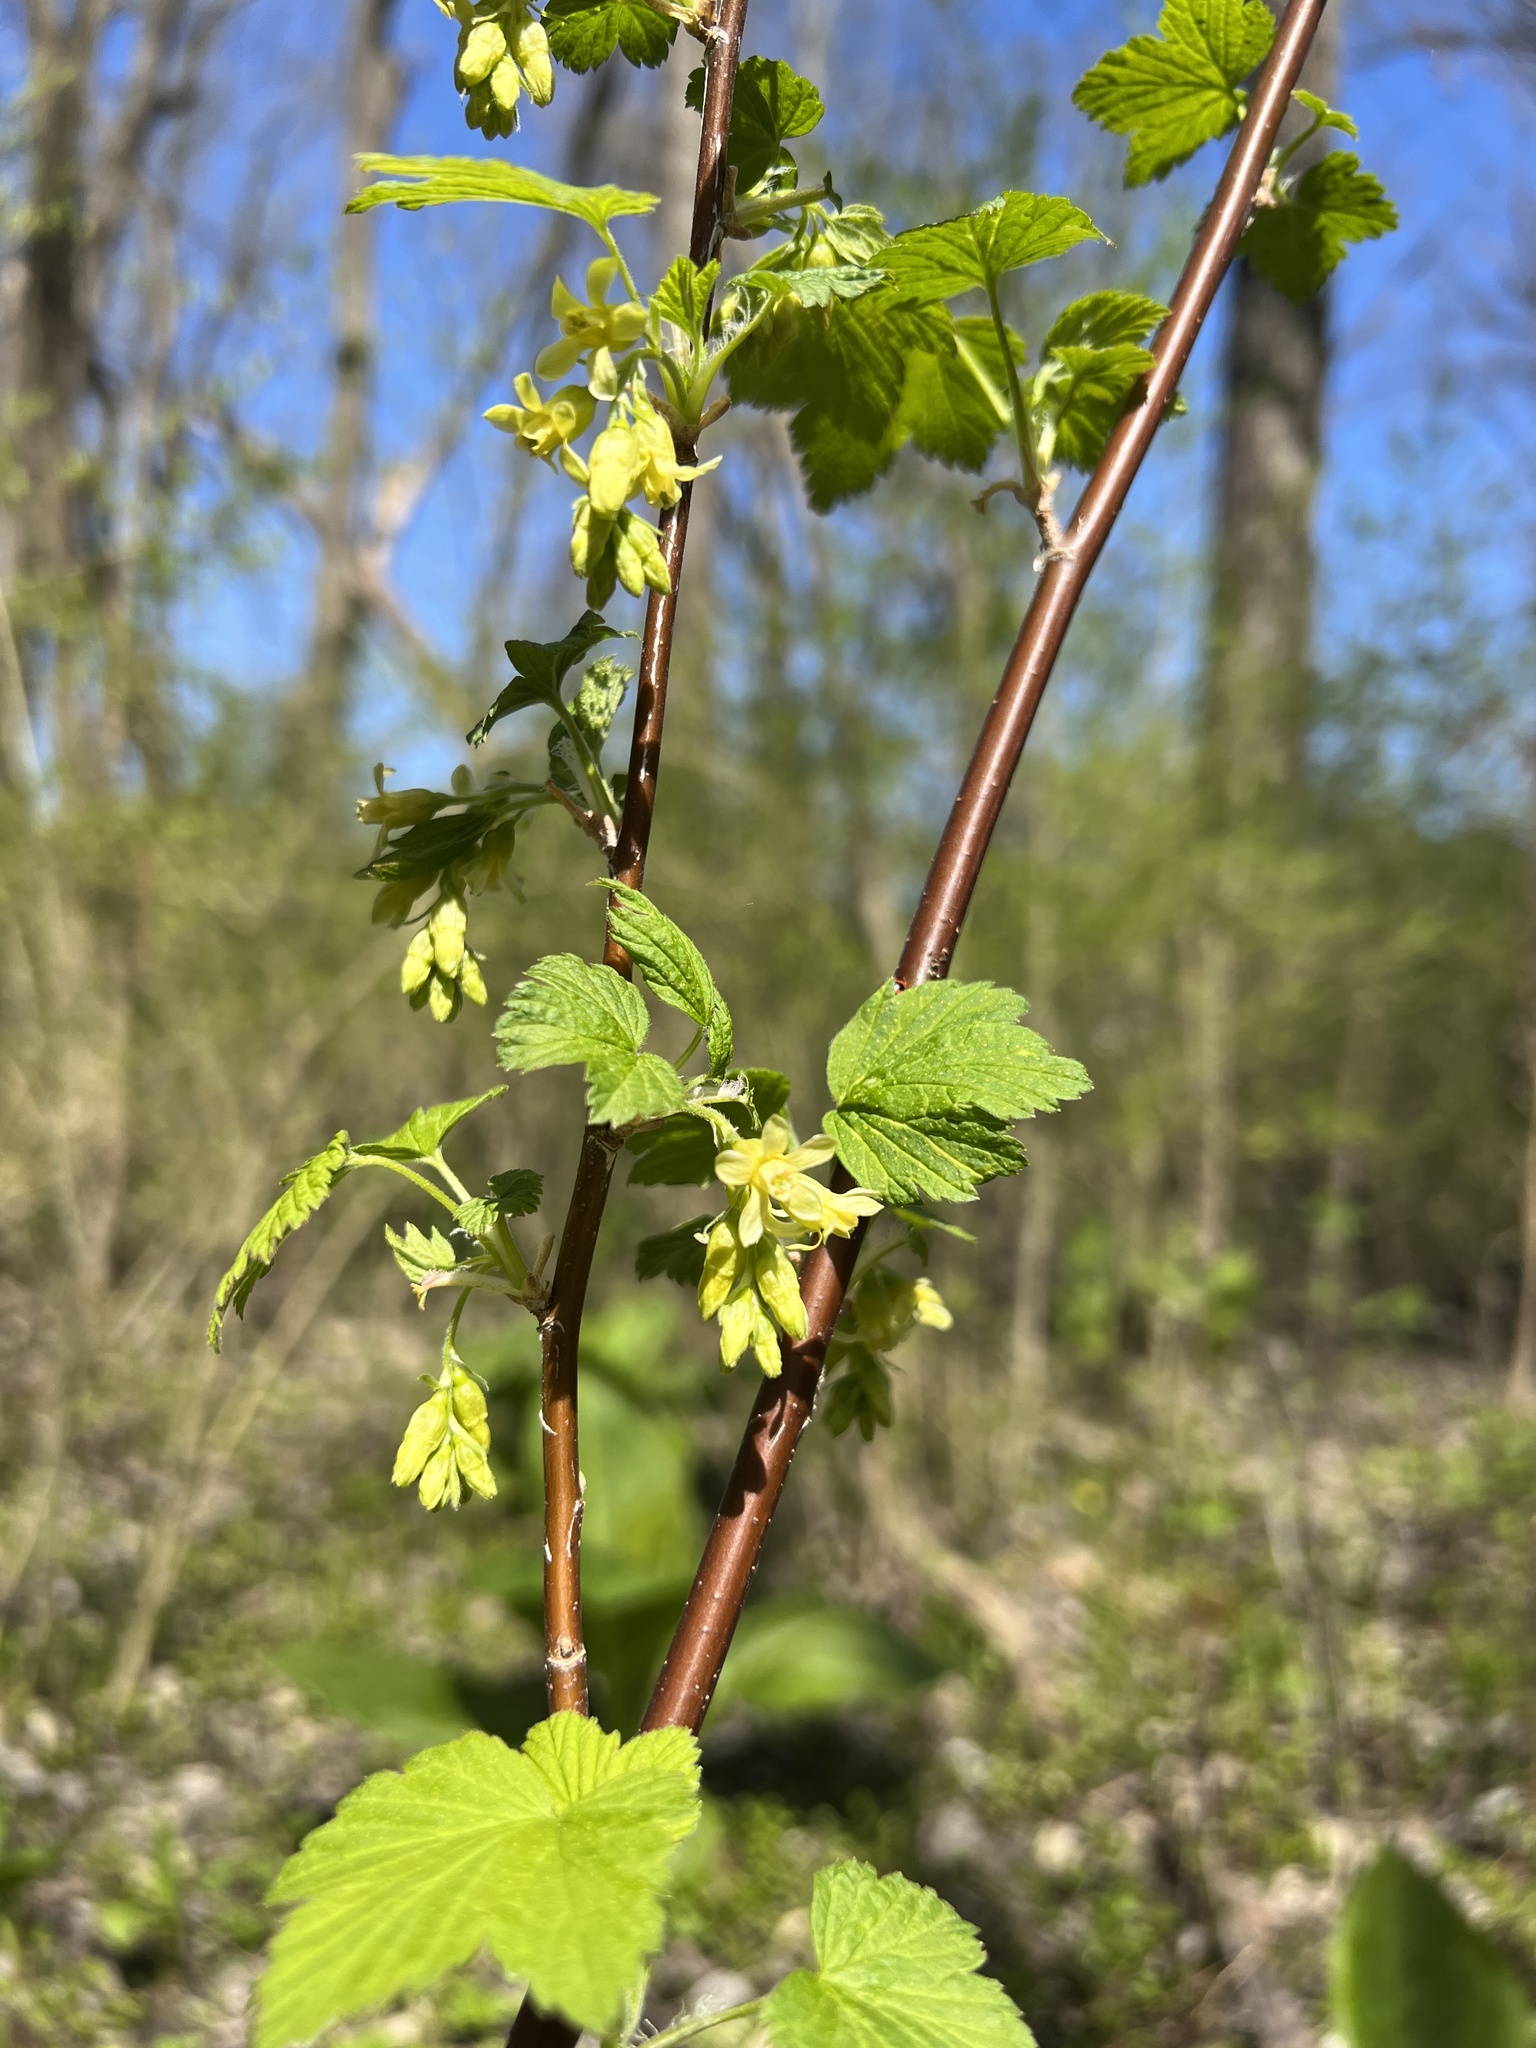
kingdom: Plantae
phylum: Tracheophyta
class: Magnoliopsida
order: Saxifragales
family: Grossulariaceae
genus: Ribes
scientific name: Ribes americanum
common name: American black currant
